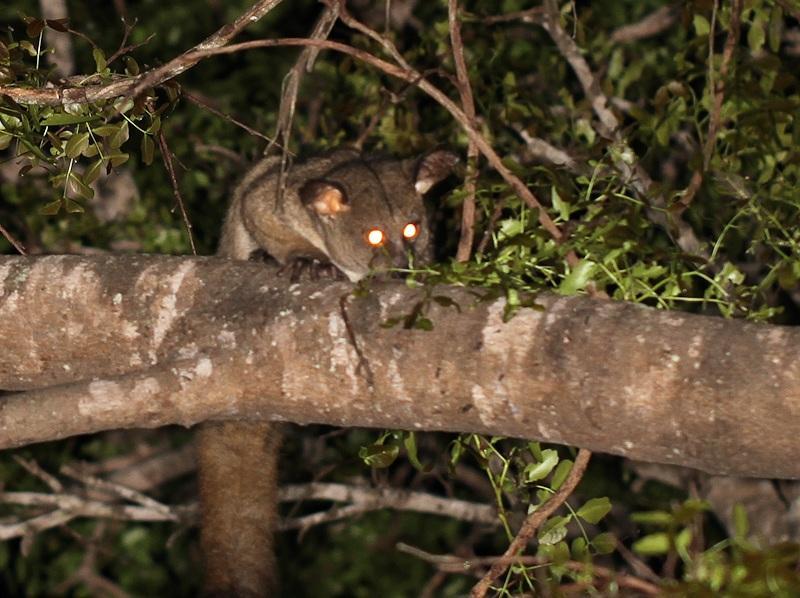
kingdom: Animalia
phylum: Chordata
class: Mammalia
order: Primates
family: Galagidae
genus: Otolemur
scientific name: Otolemur crassicaudatus
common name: Brown greater galago
